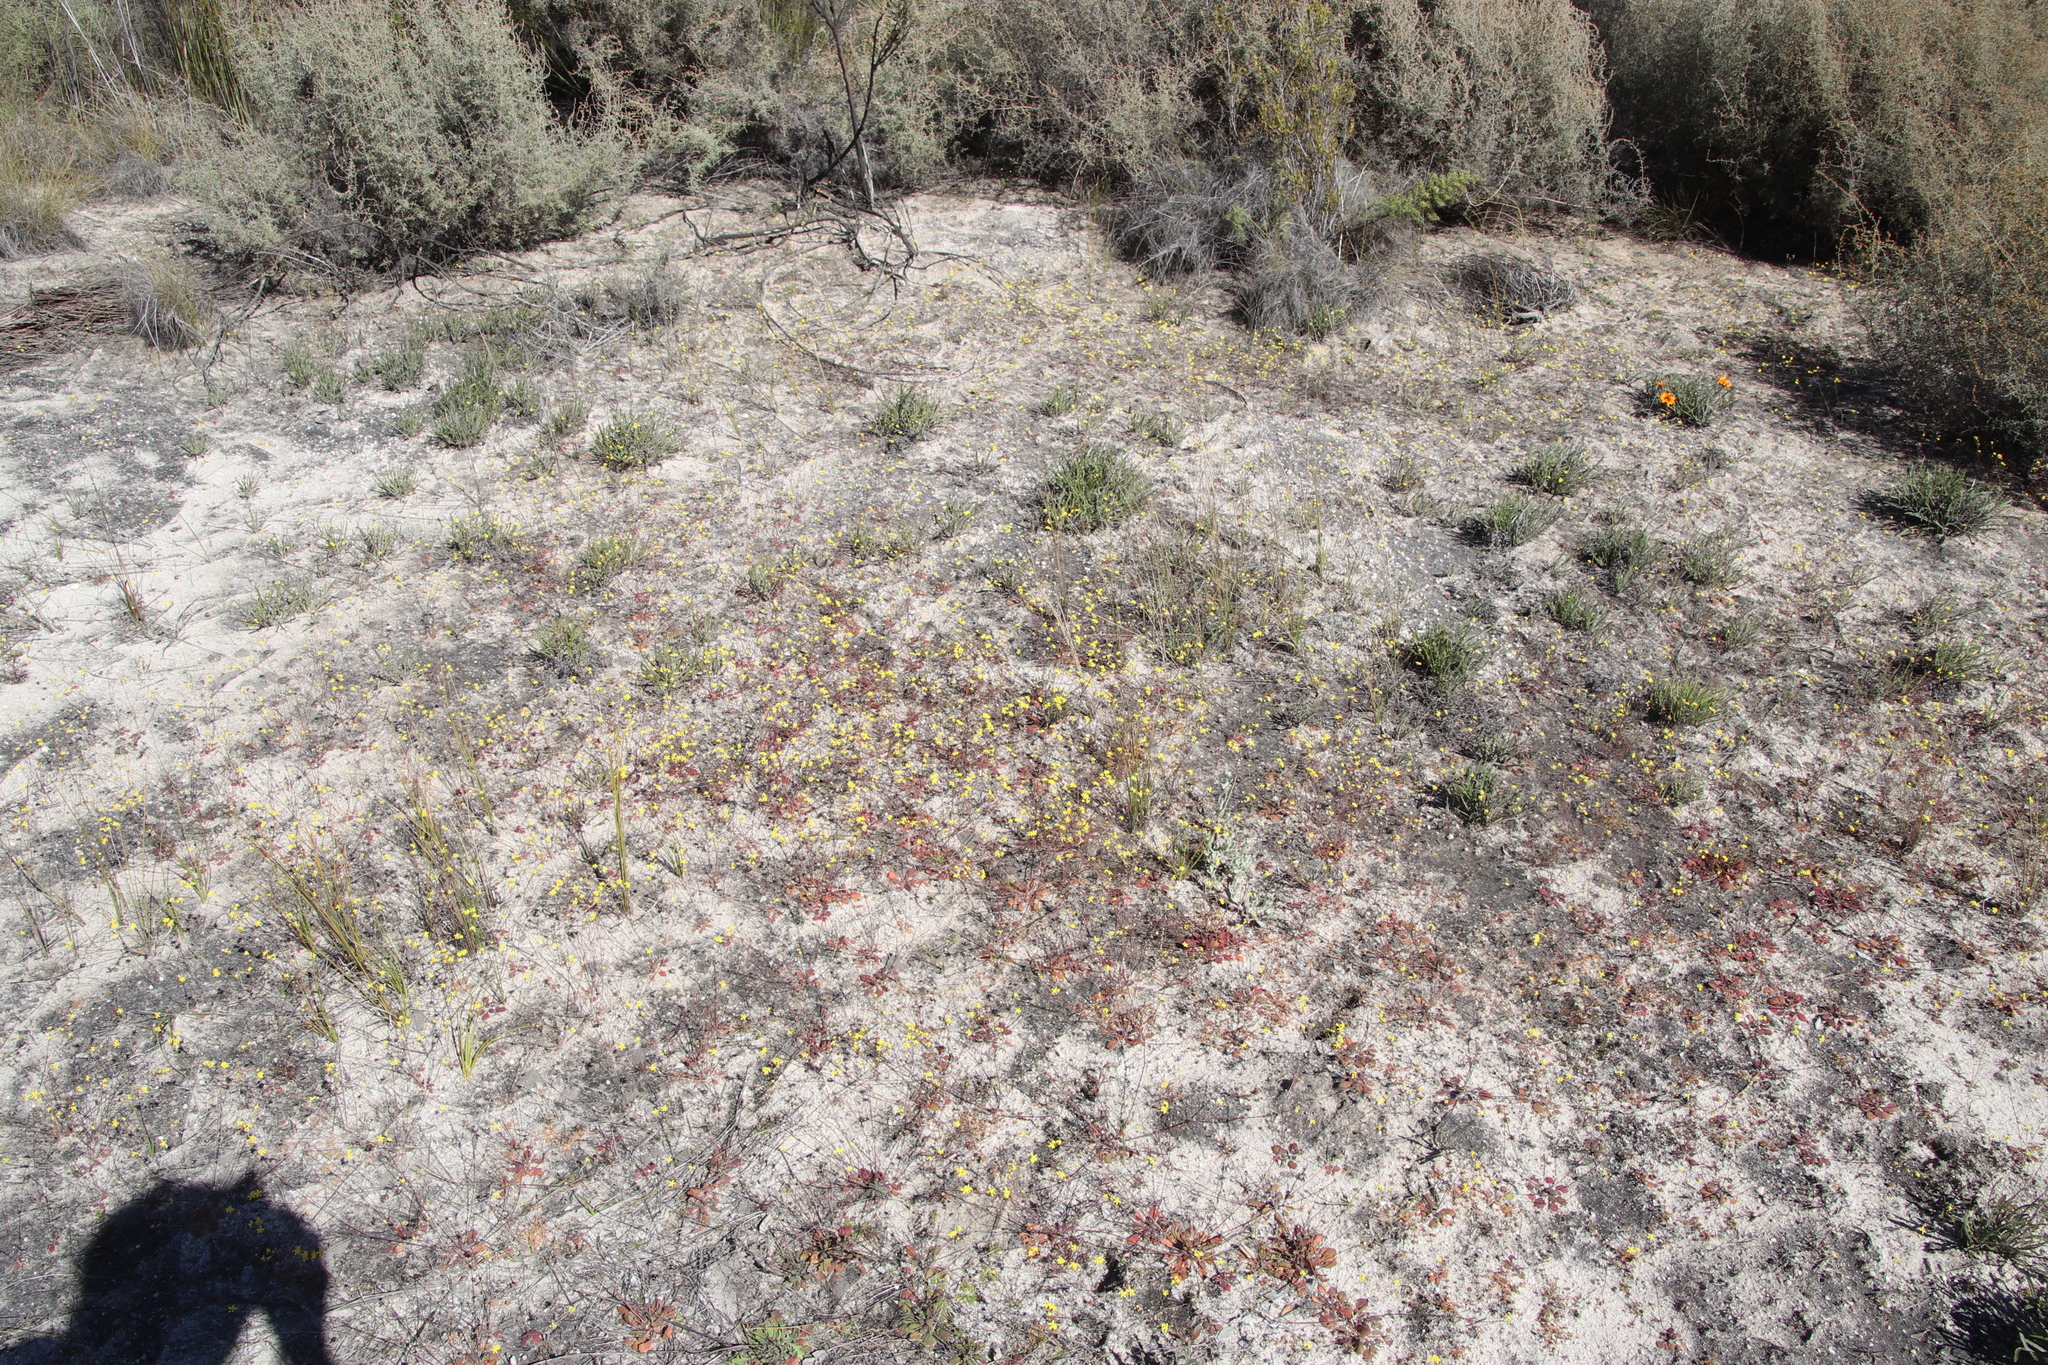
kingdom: Plantae
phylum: Tracheophyta
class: Magnoliopsida
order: Asterales
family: Asteraceae
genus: Gymnodiscus
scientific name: Gymnodiscus capillaris
